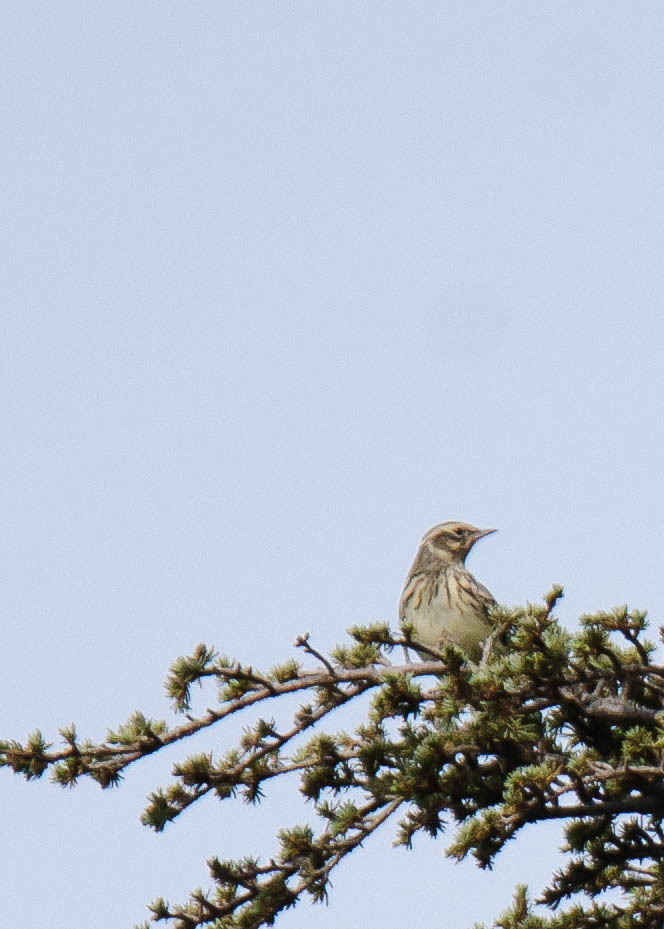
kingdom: Animalia
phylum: Chordata
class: Aves
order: Passeriformes
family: Alaudidae
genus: Lullula
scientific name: Lullula arborea
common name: Woodlark
